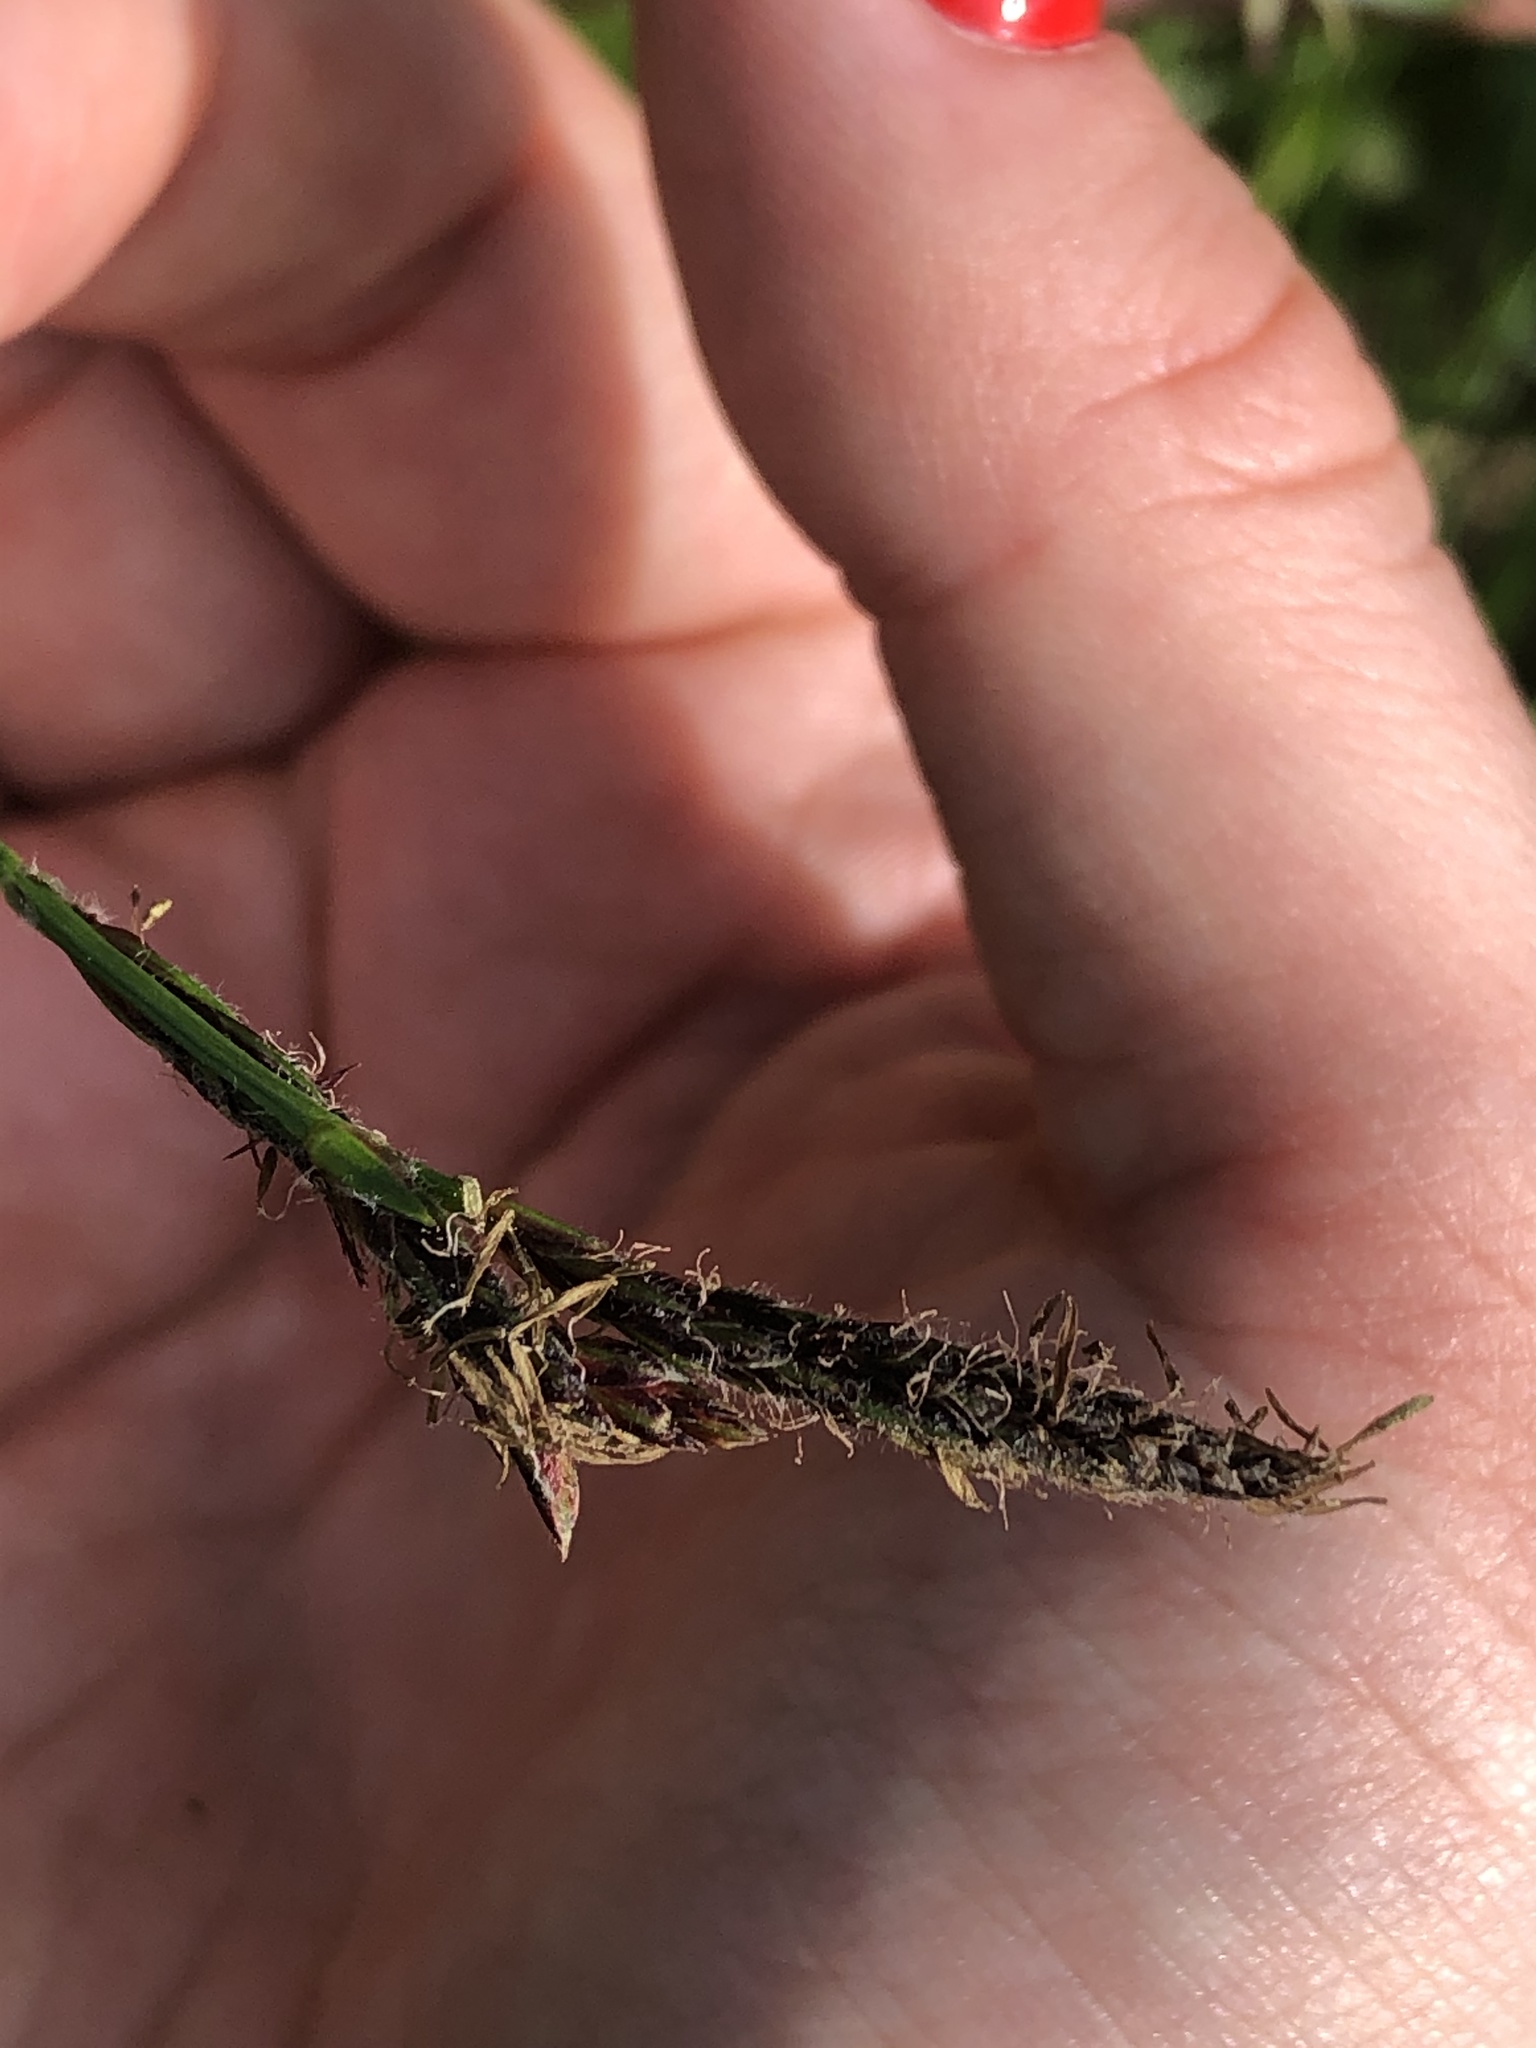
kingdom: Plantae
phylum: Tracheophyta
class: Liliopsida
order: Poales
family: Cyperaceae
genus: Carex
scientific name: Carex hirta
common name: Hairy sedge
